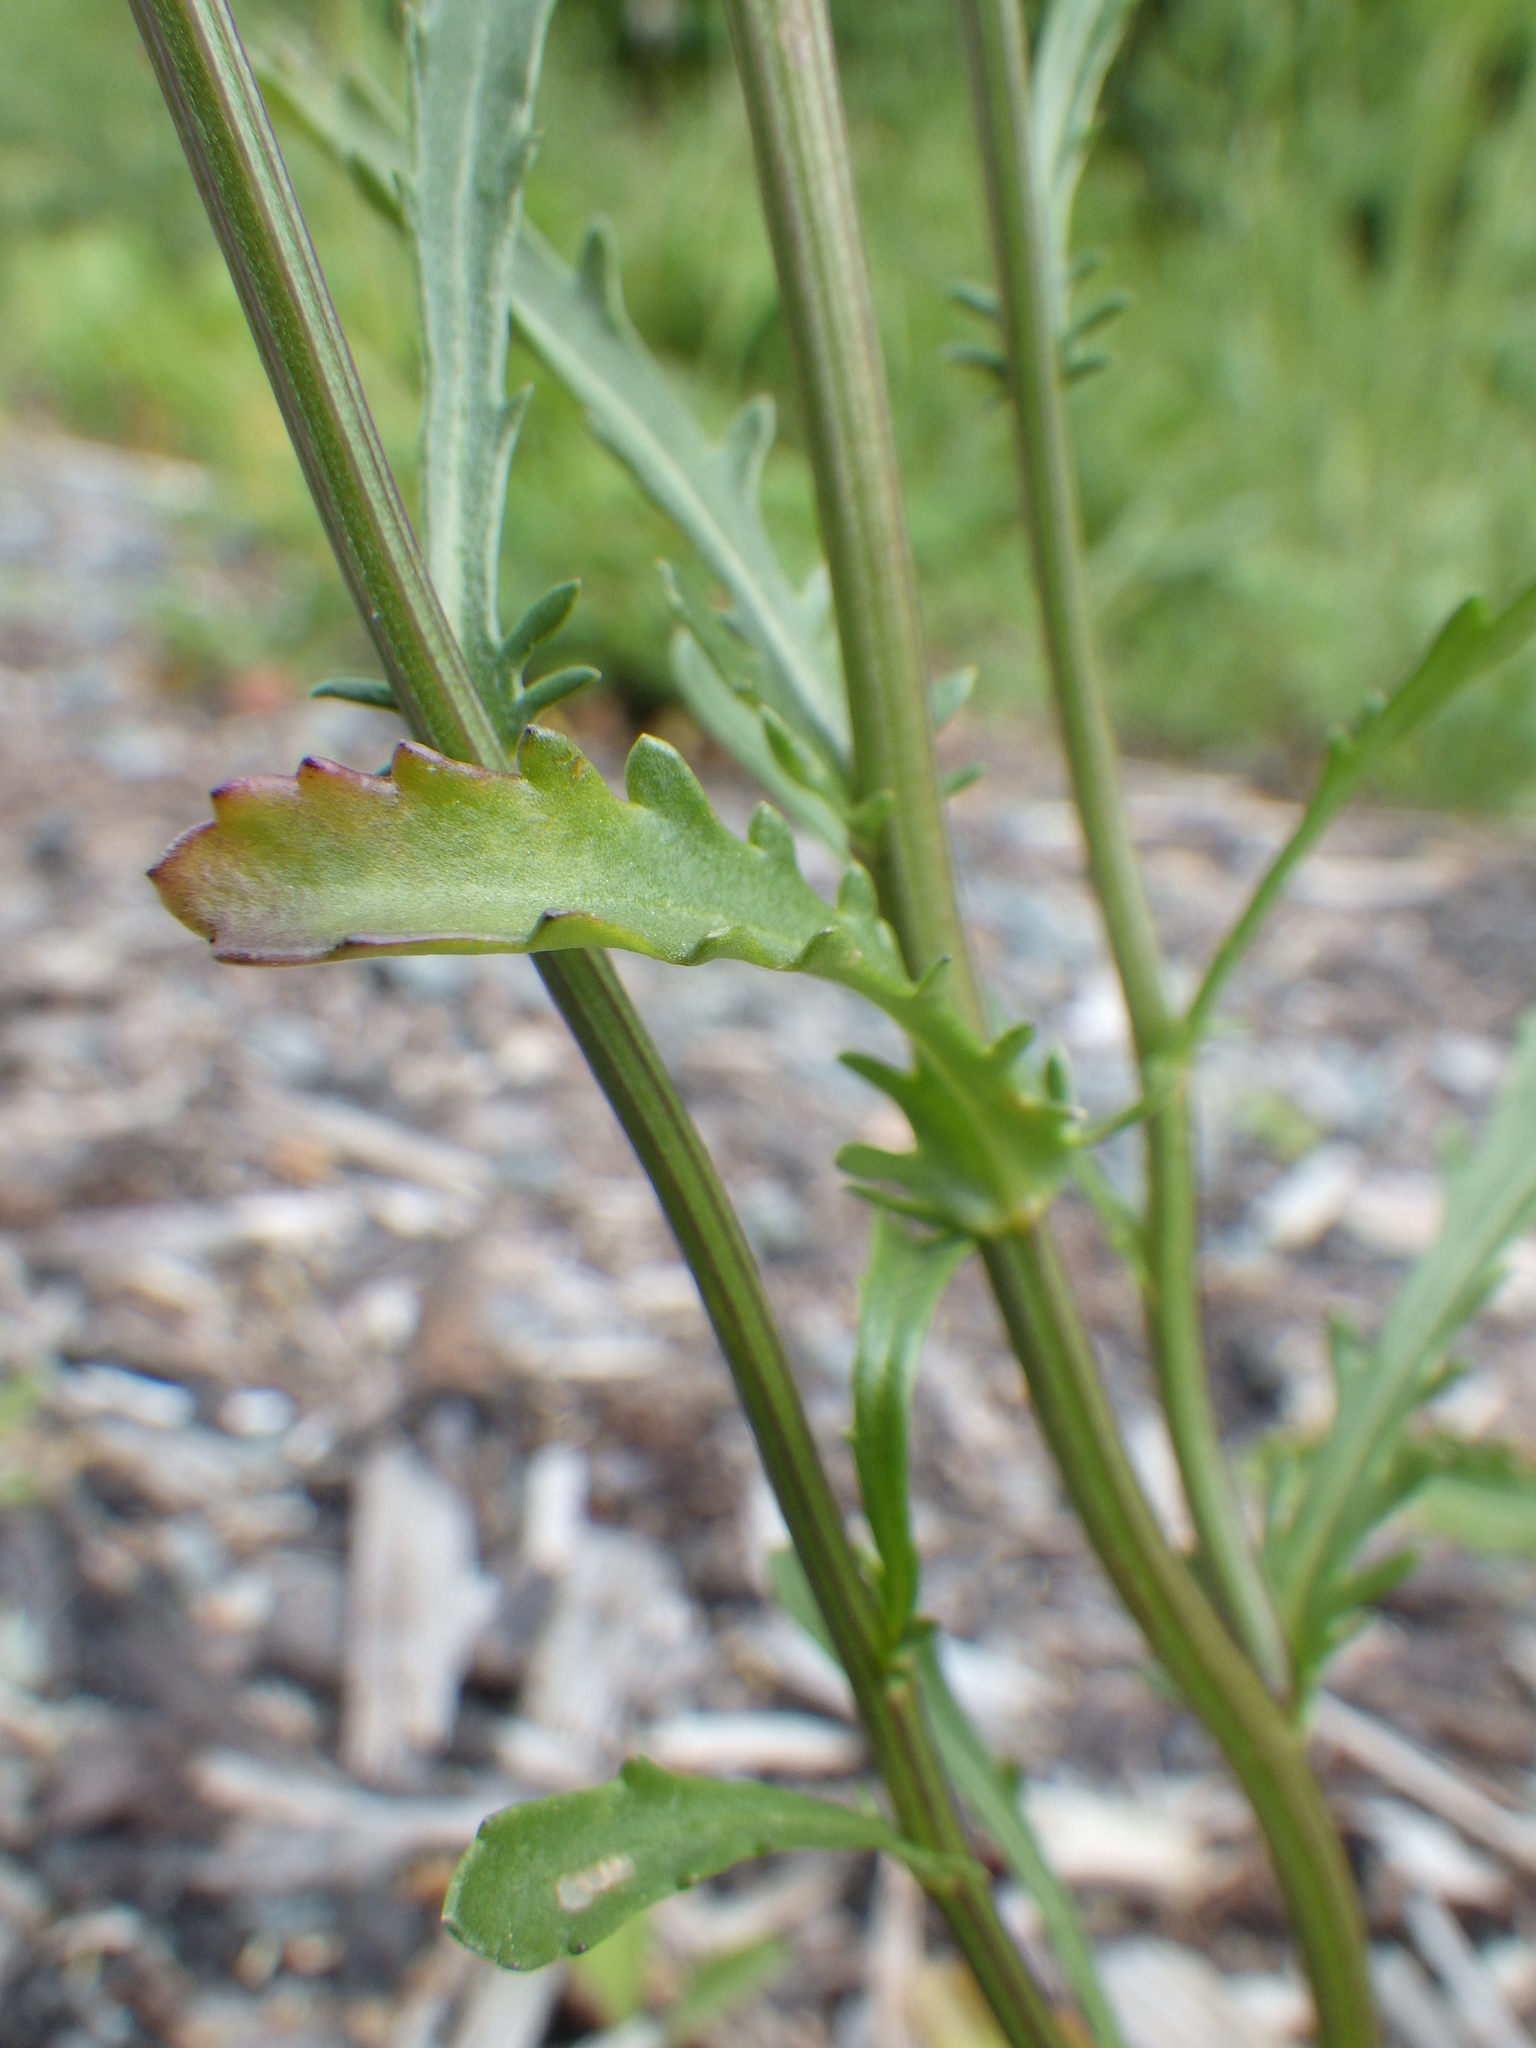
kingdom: Plantae
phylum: Tracheophyta
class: Magnoliopsida
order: Asterales
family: Asteraceae
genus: Leucanthemum
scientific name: Leucanthemum vulgare
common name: Oxeye daisy
